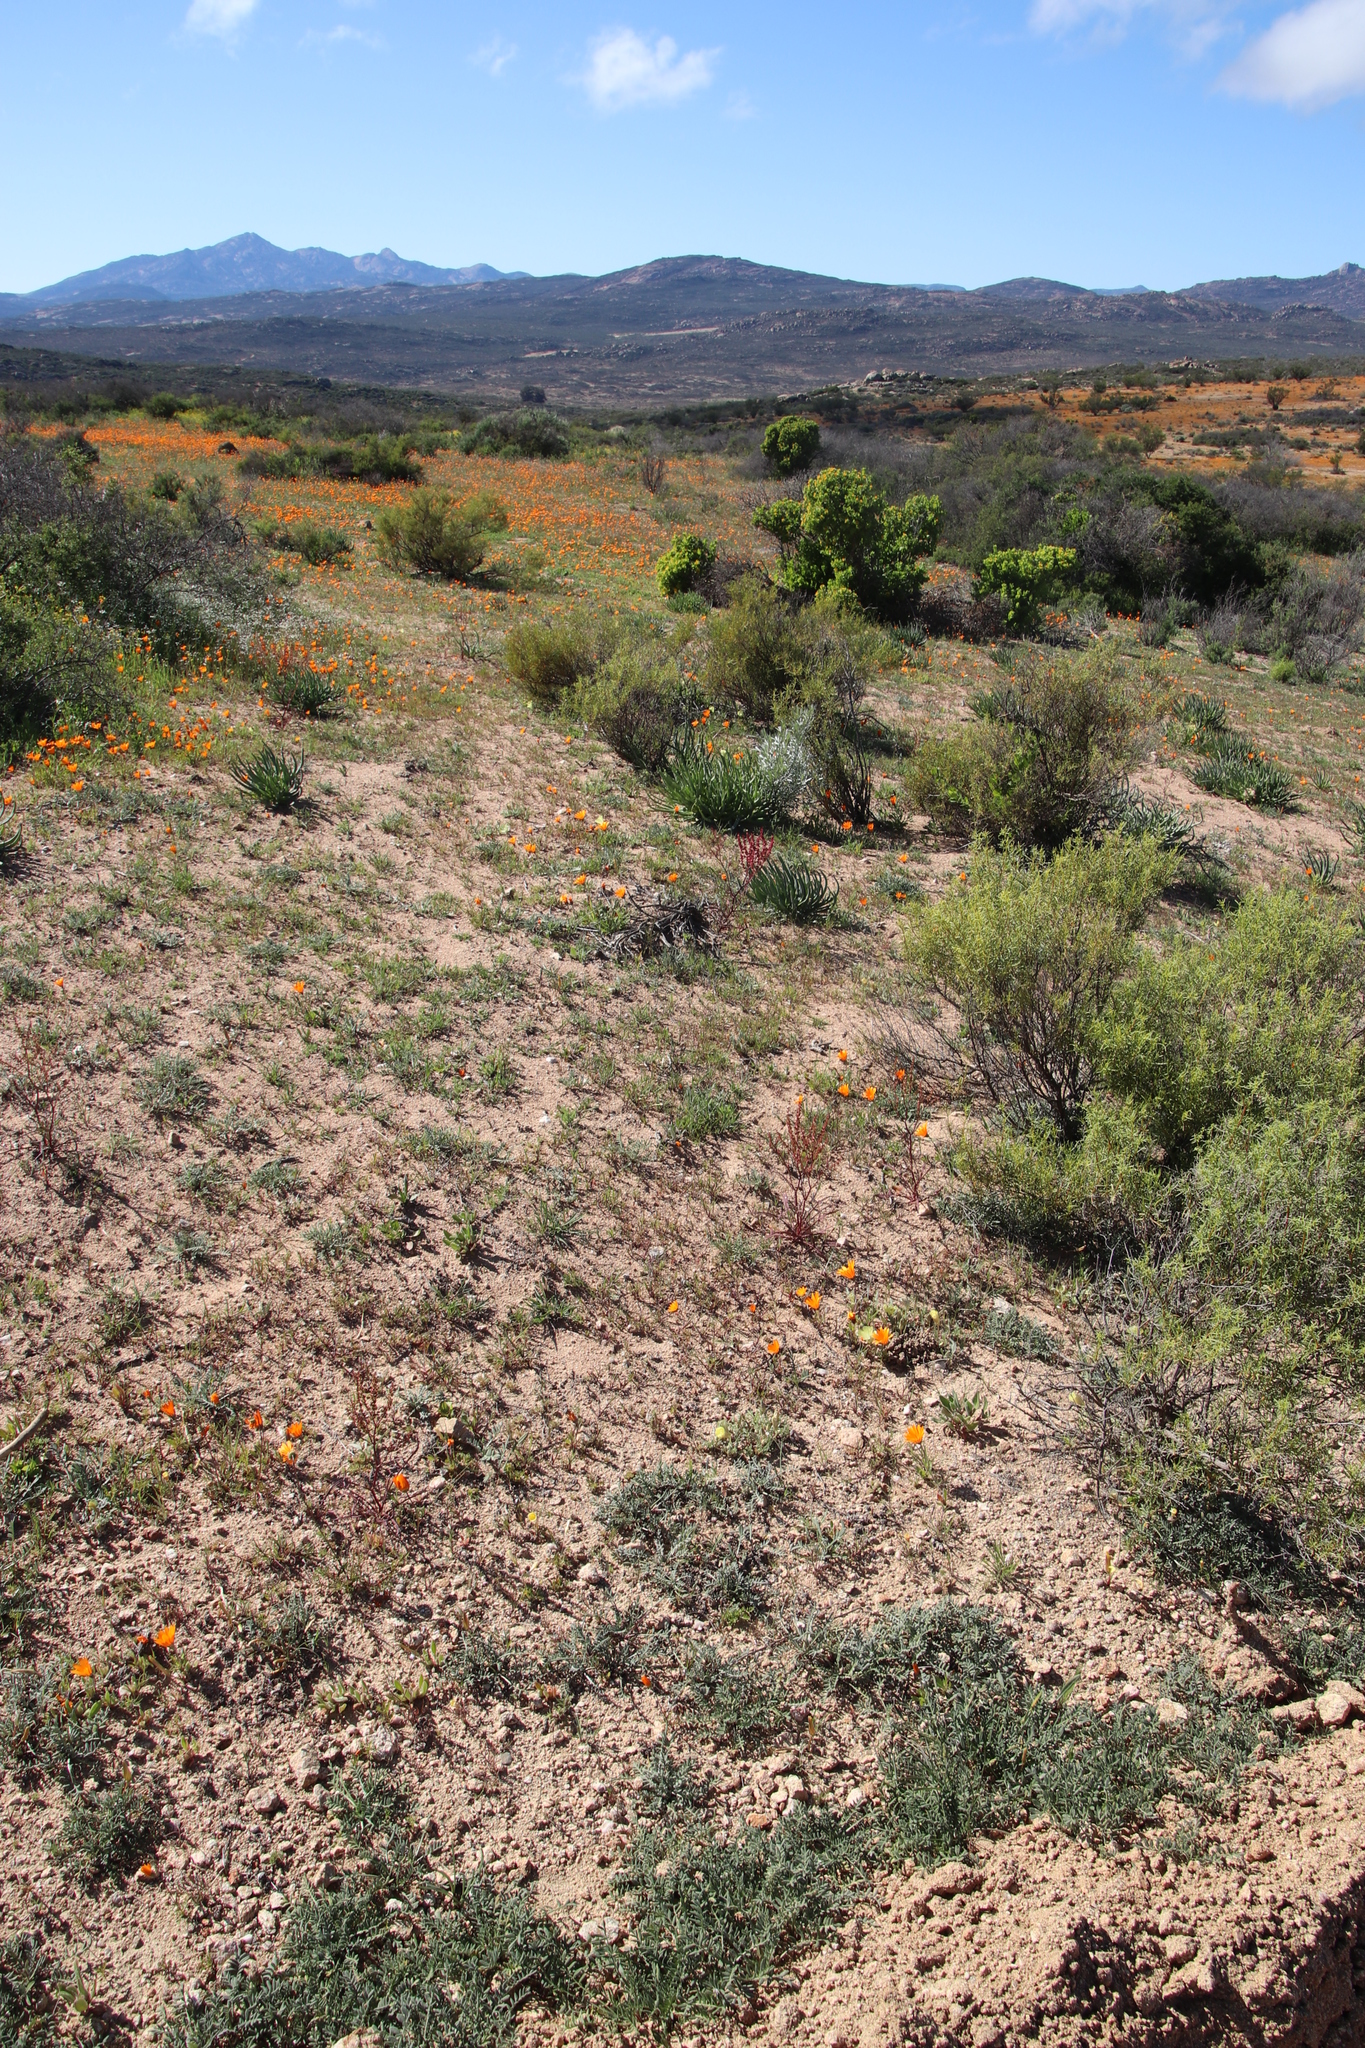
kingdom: Plantae
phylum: Tracheophyta
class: Magnoliopsida
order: Caryophyllales
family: Polygonaceae
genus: Rumex
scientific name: Rumex lativalvis
